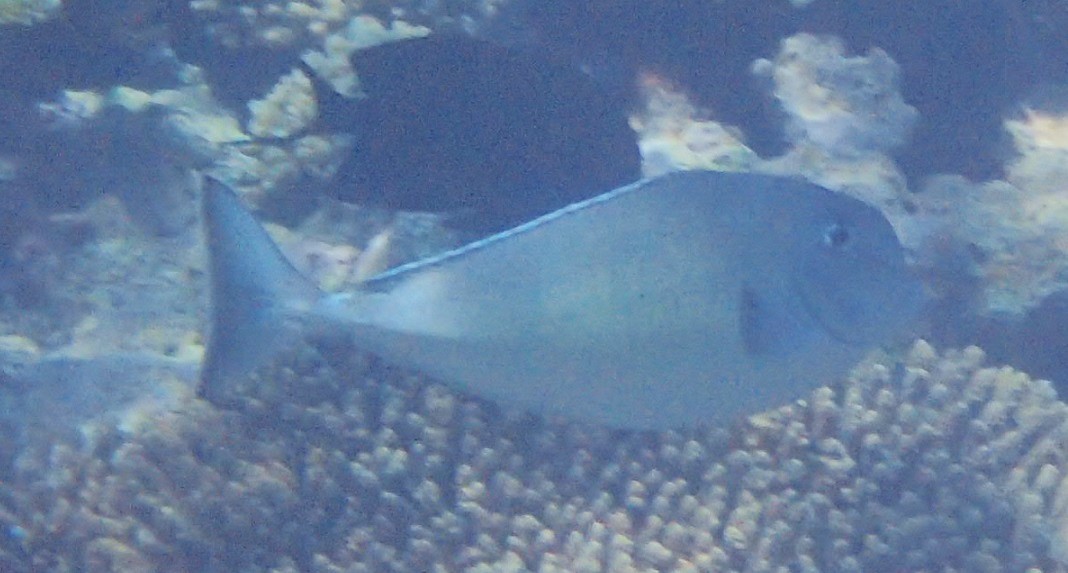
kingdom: Animalia
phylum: Chordata
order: Perciformes
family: Acanthuridae
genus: Naso
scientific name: Naso mcdadei
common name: Squarenose unicornfish
